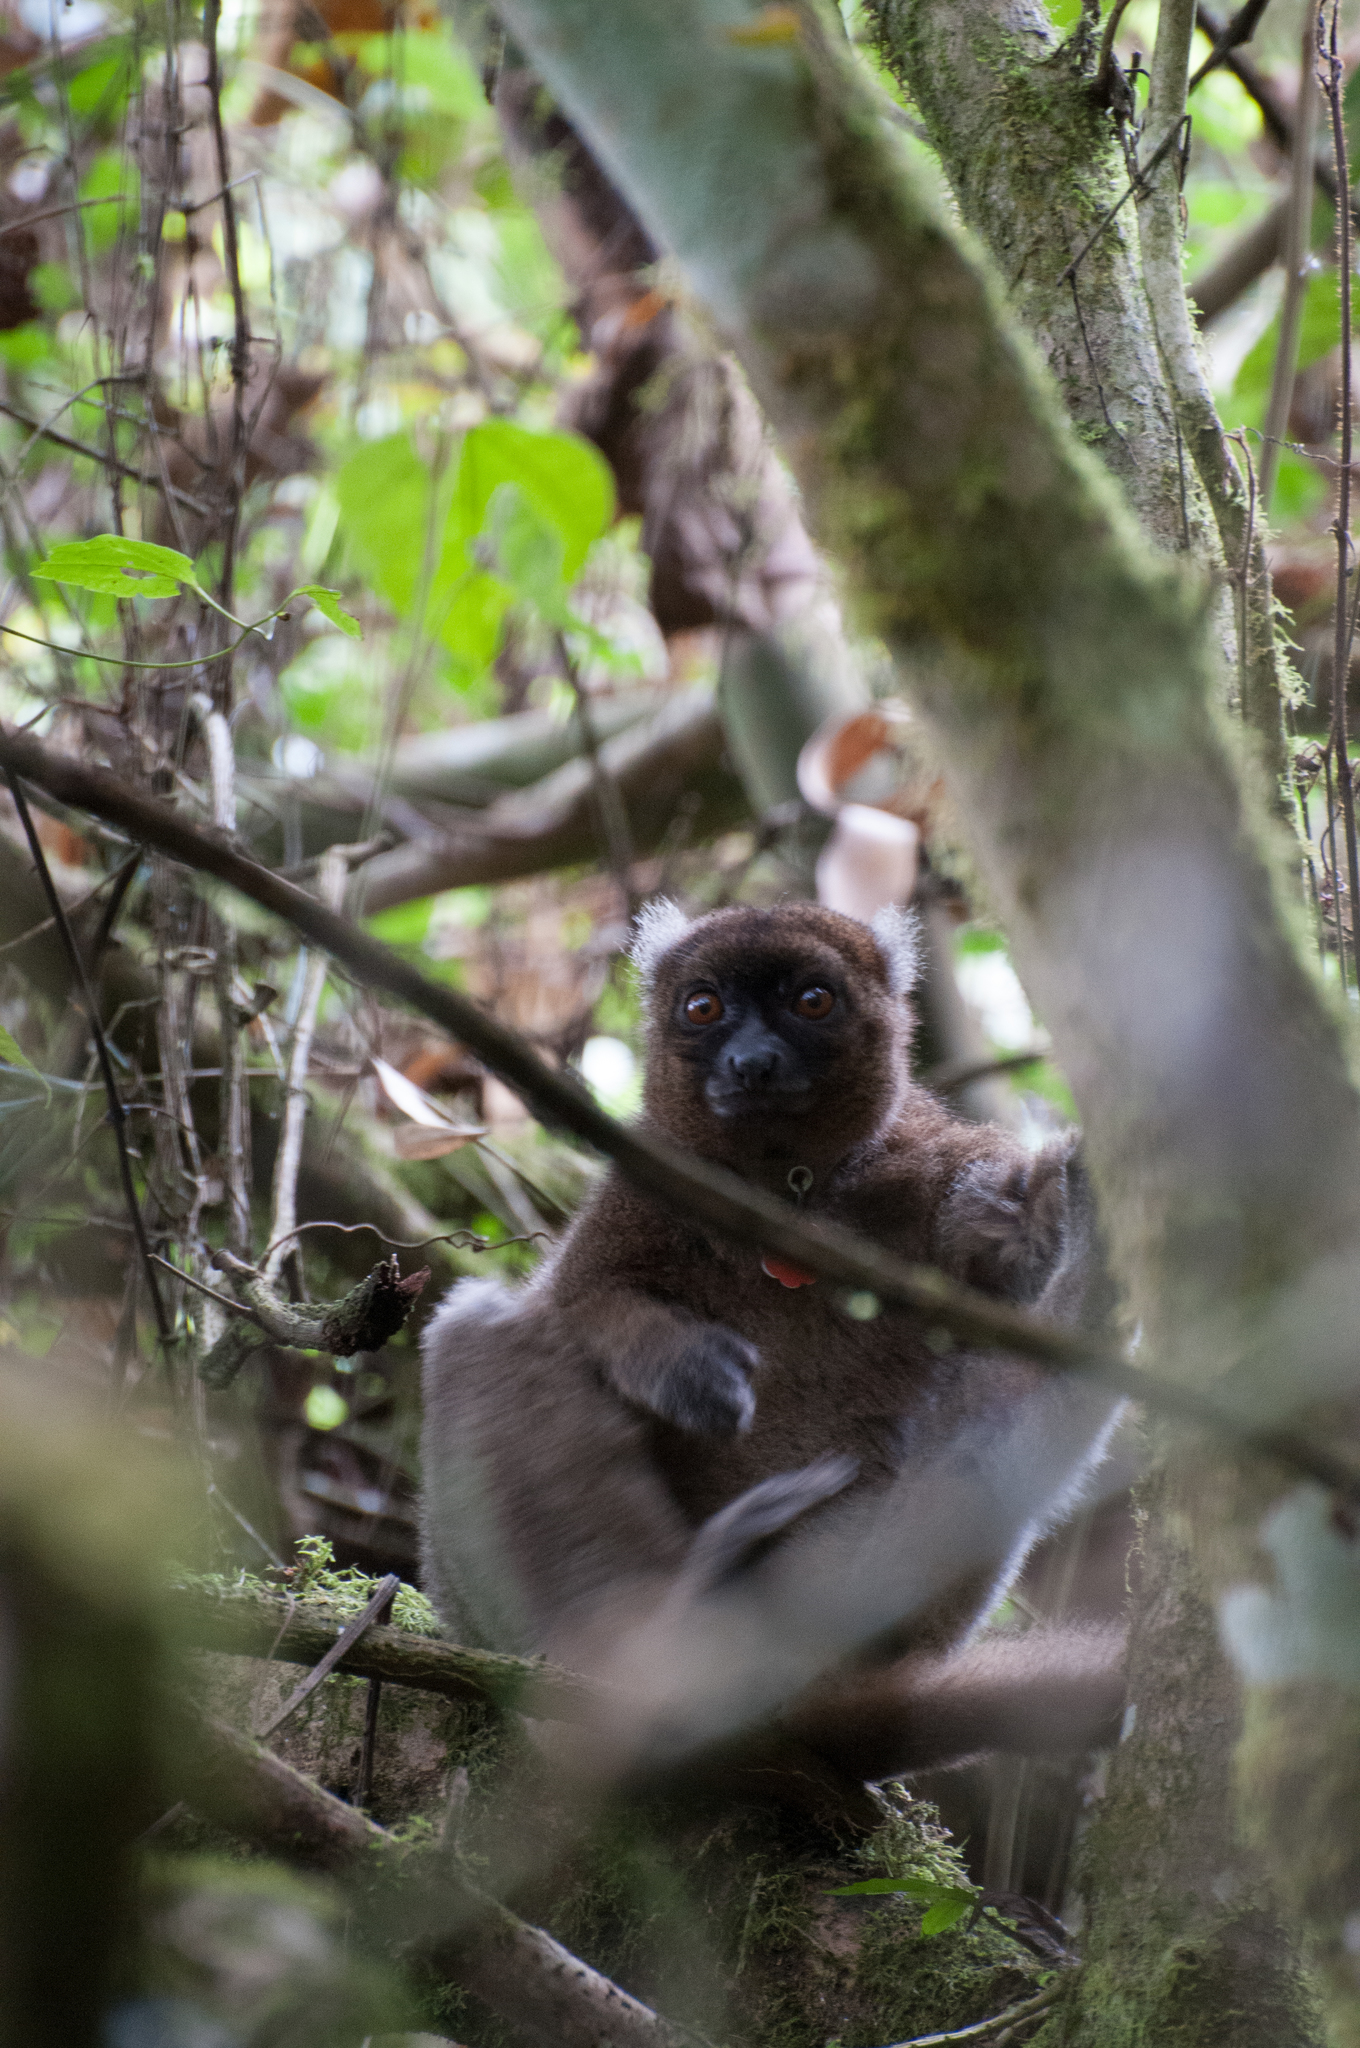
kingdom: Animalia
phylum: Chordata
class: Mammalia
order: Primates
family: Lemuridae
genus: Prolemur
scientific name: Prolemur simus
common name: Greater bamboo lemur
